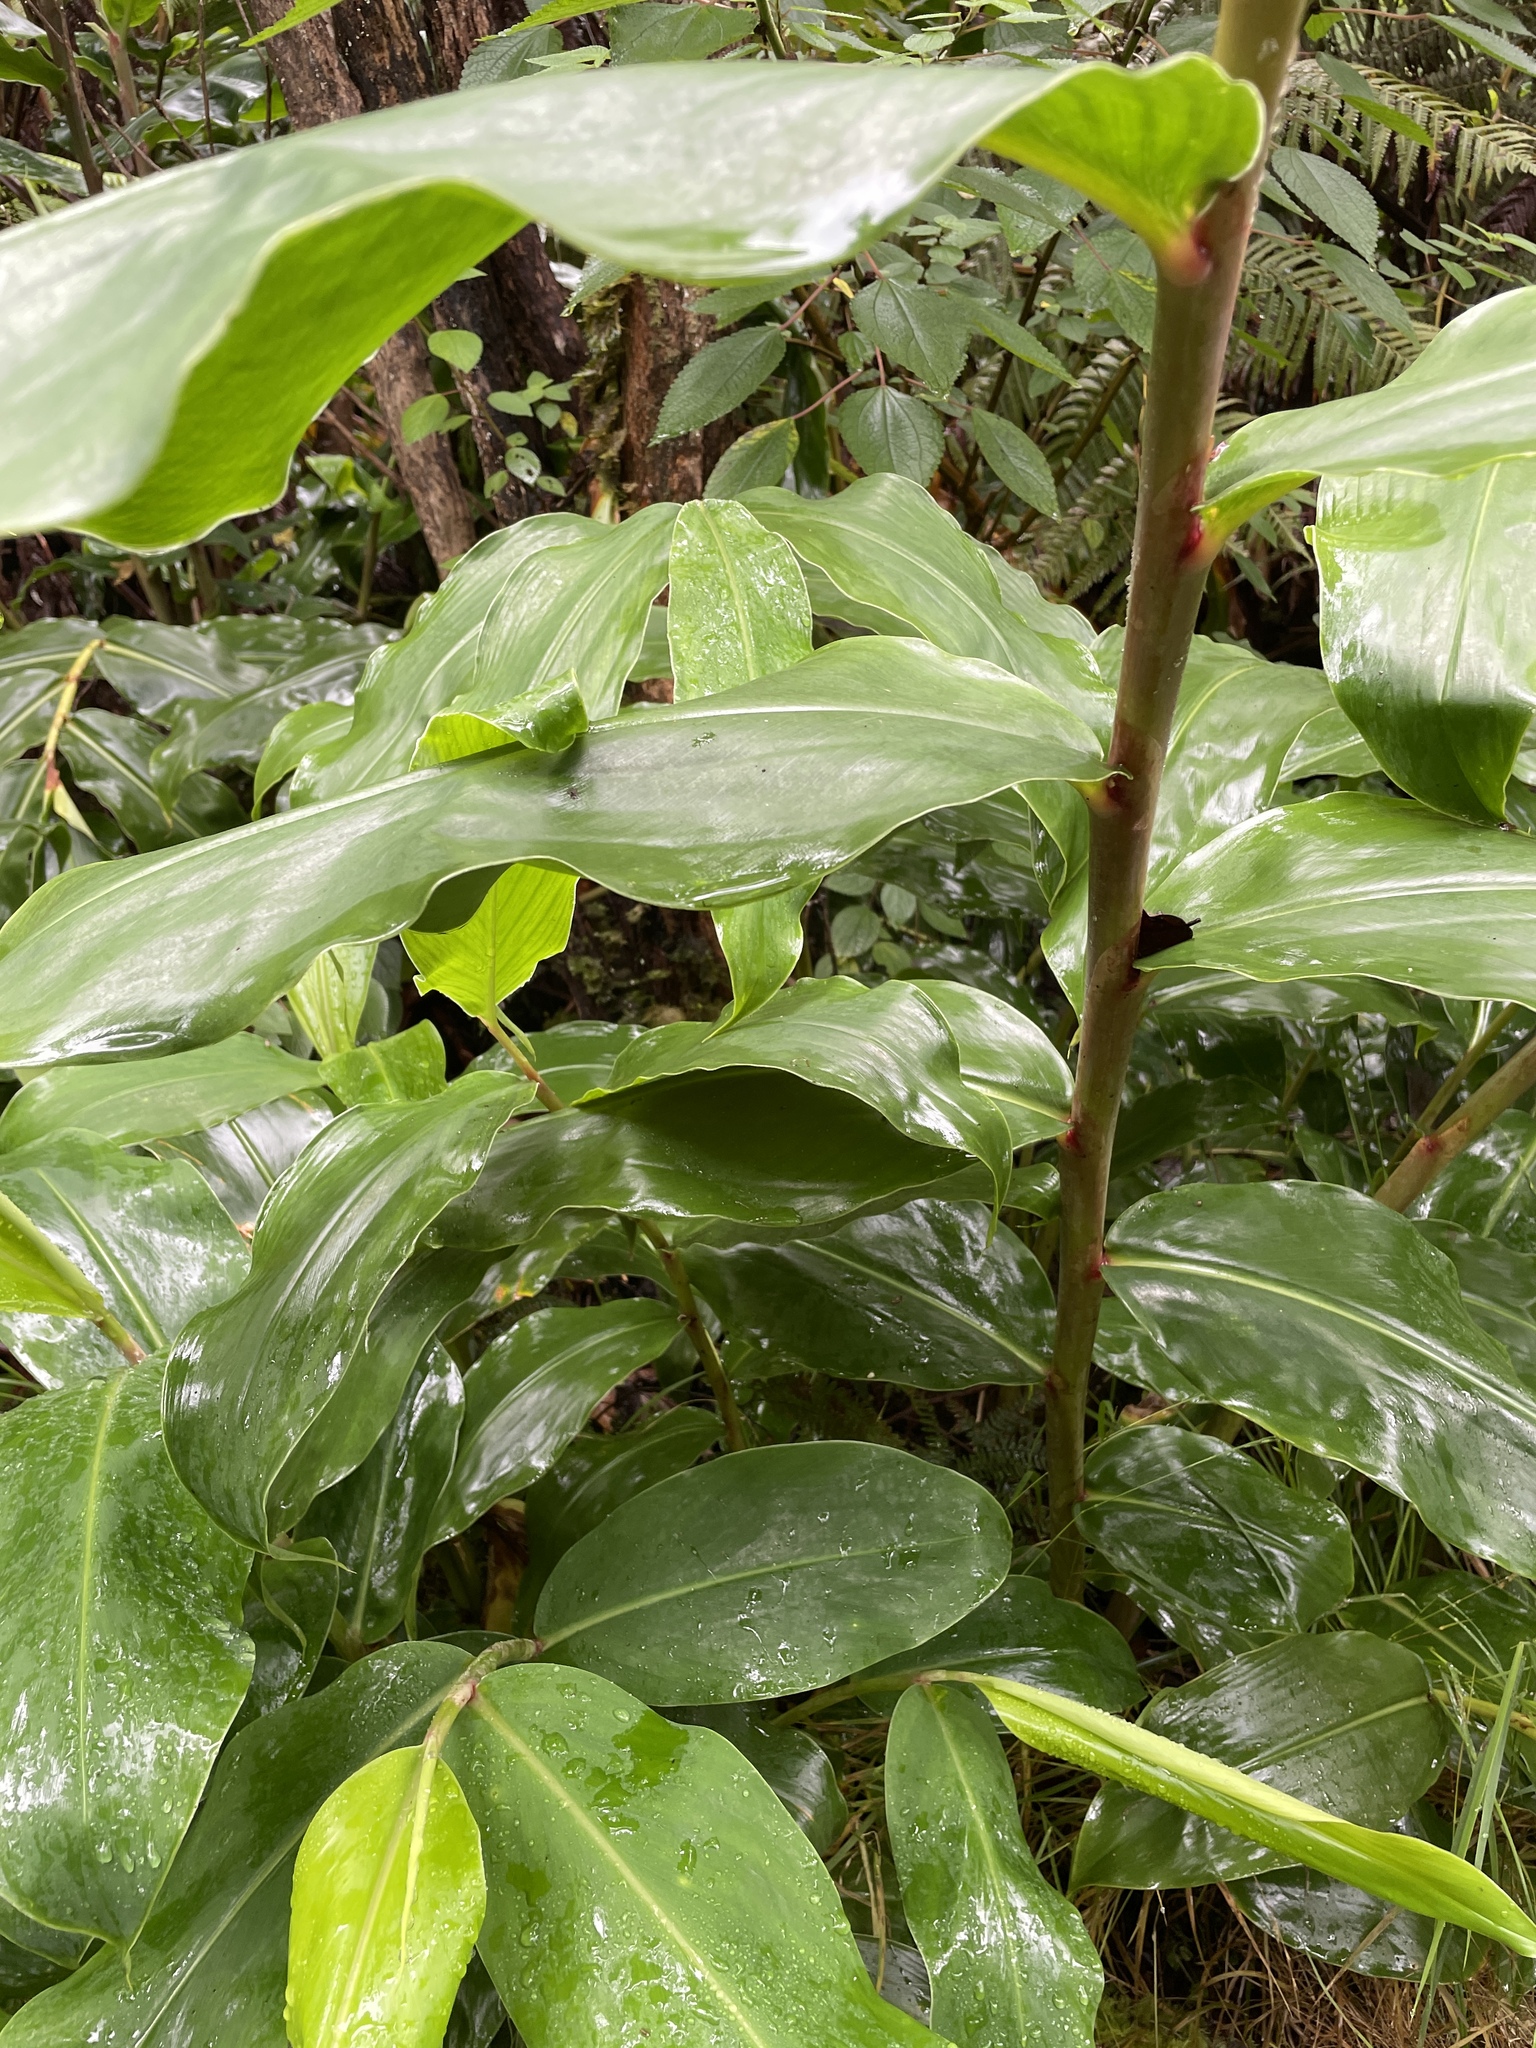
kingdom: Plantae
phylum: Tracheophyta
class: Liliopsida
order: Zingiberales
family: Zingiberaceae
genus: Hedychium
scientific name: Hedychium gardnerianum
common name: Himalayan ginger
